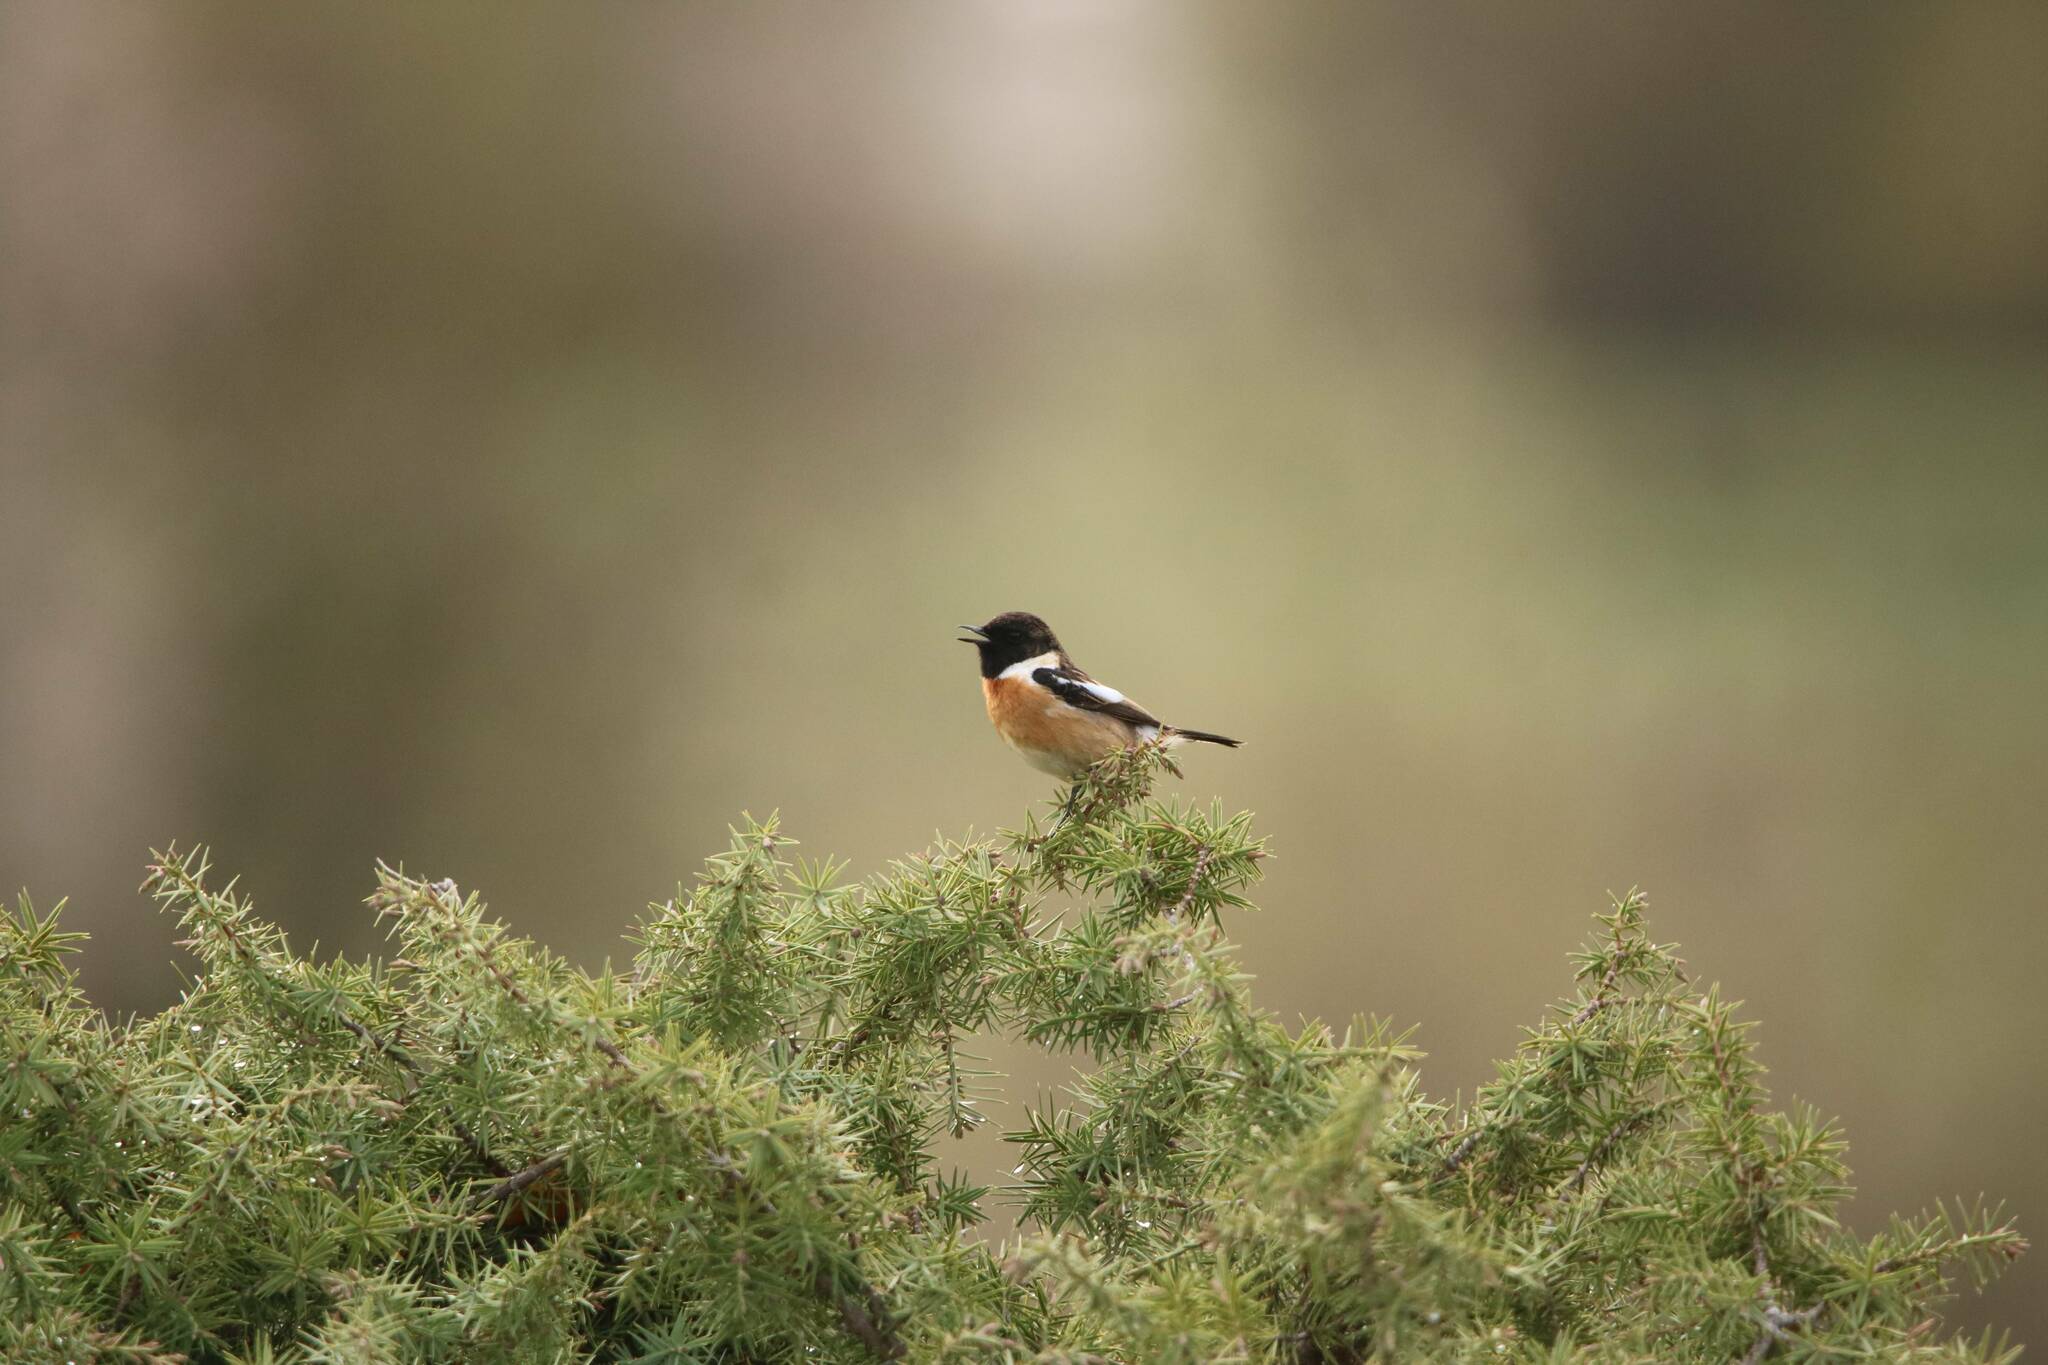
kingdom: Animalia
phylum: Chordata
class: Aves
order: Passeriformes
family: Muscicapidae
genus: Saxicola
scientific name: Saxicola rubicola
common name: European stonechat
